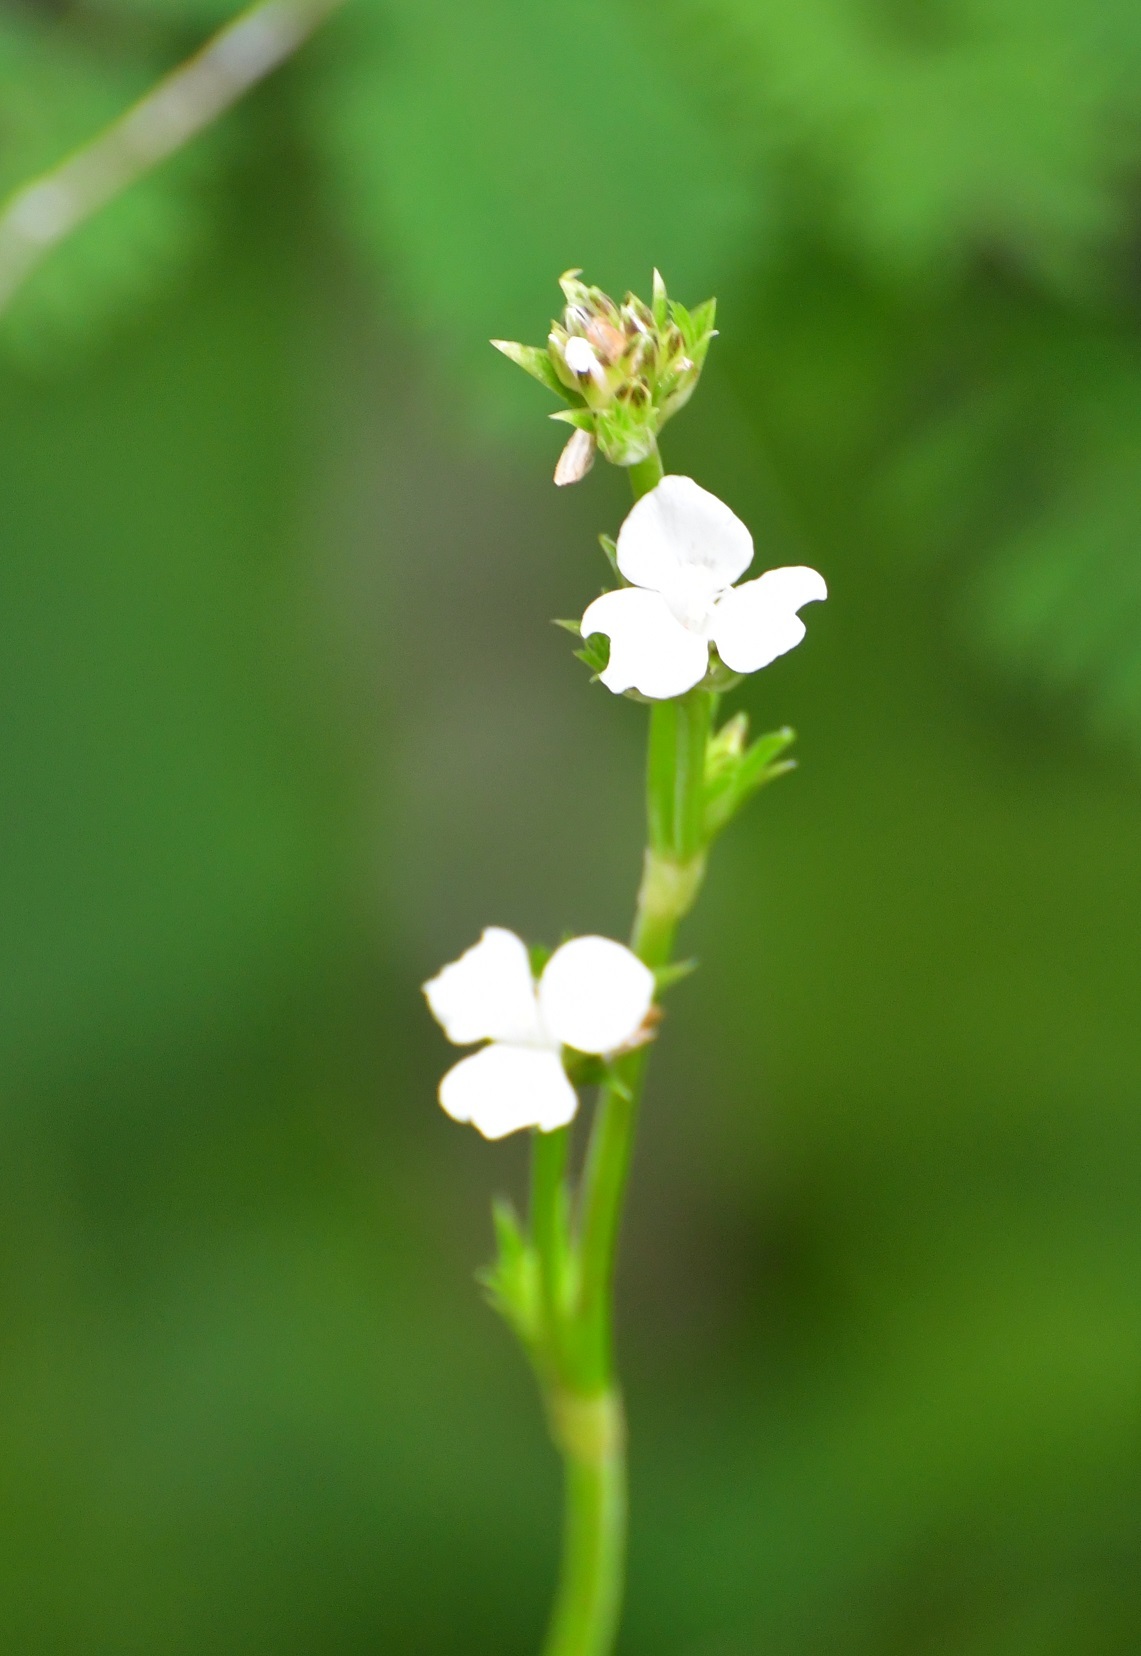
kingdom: Plantae
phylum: Tracheophyta
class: Liliopsida
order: Commelinales
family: Commelinaceae
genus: Callisia
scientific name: Callisia gentlei
